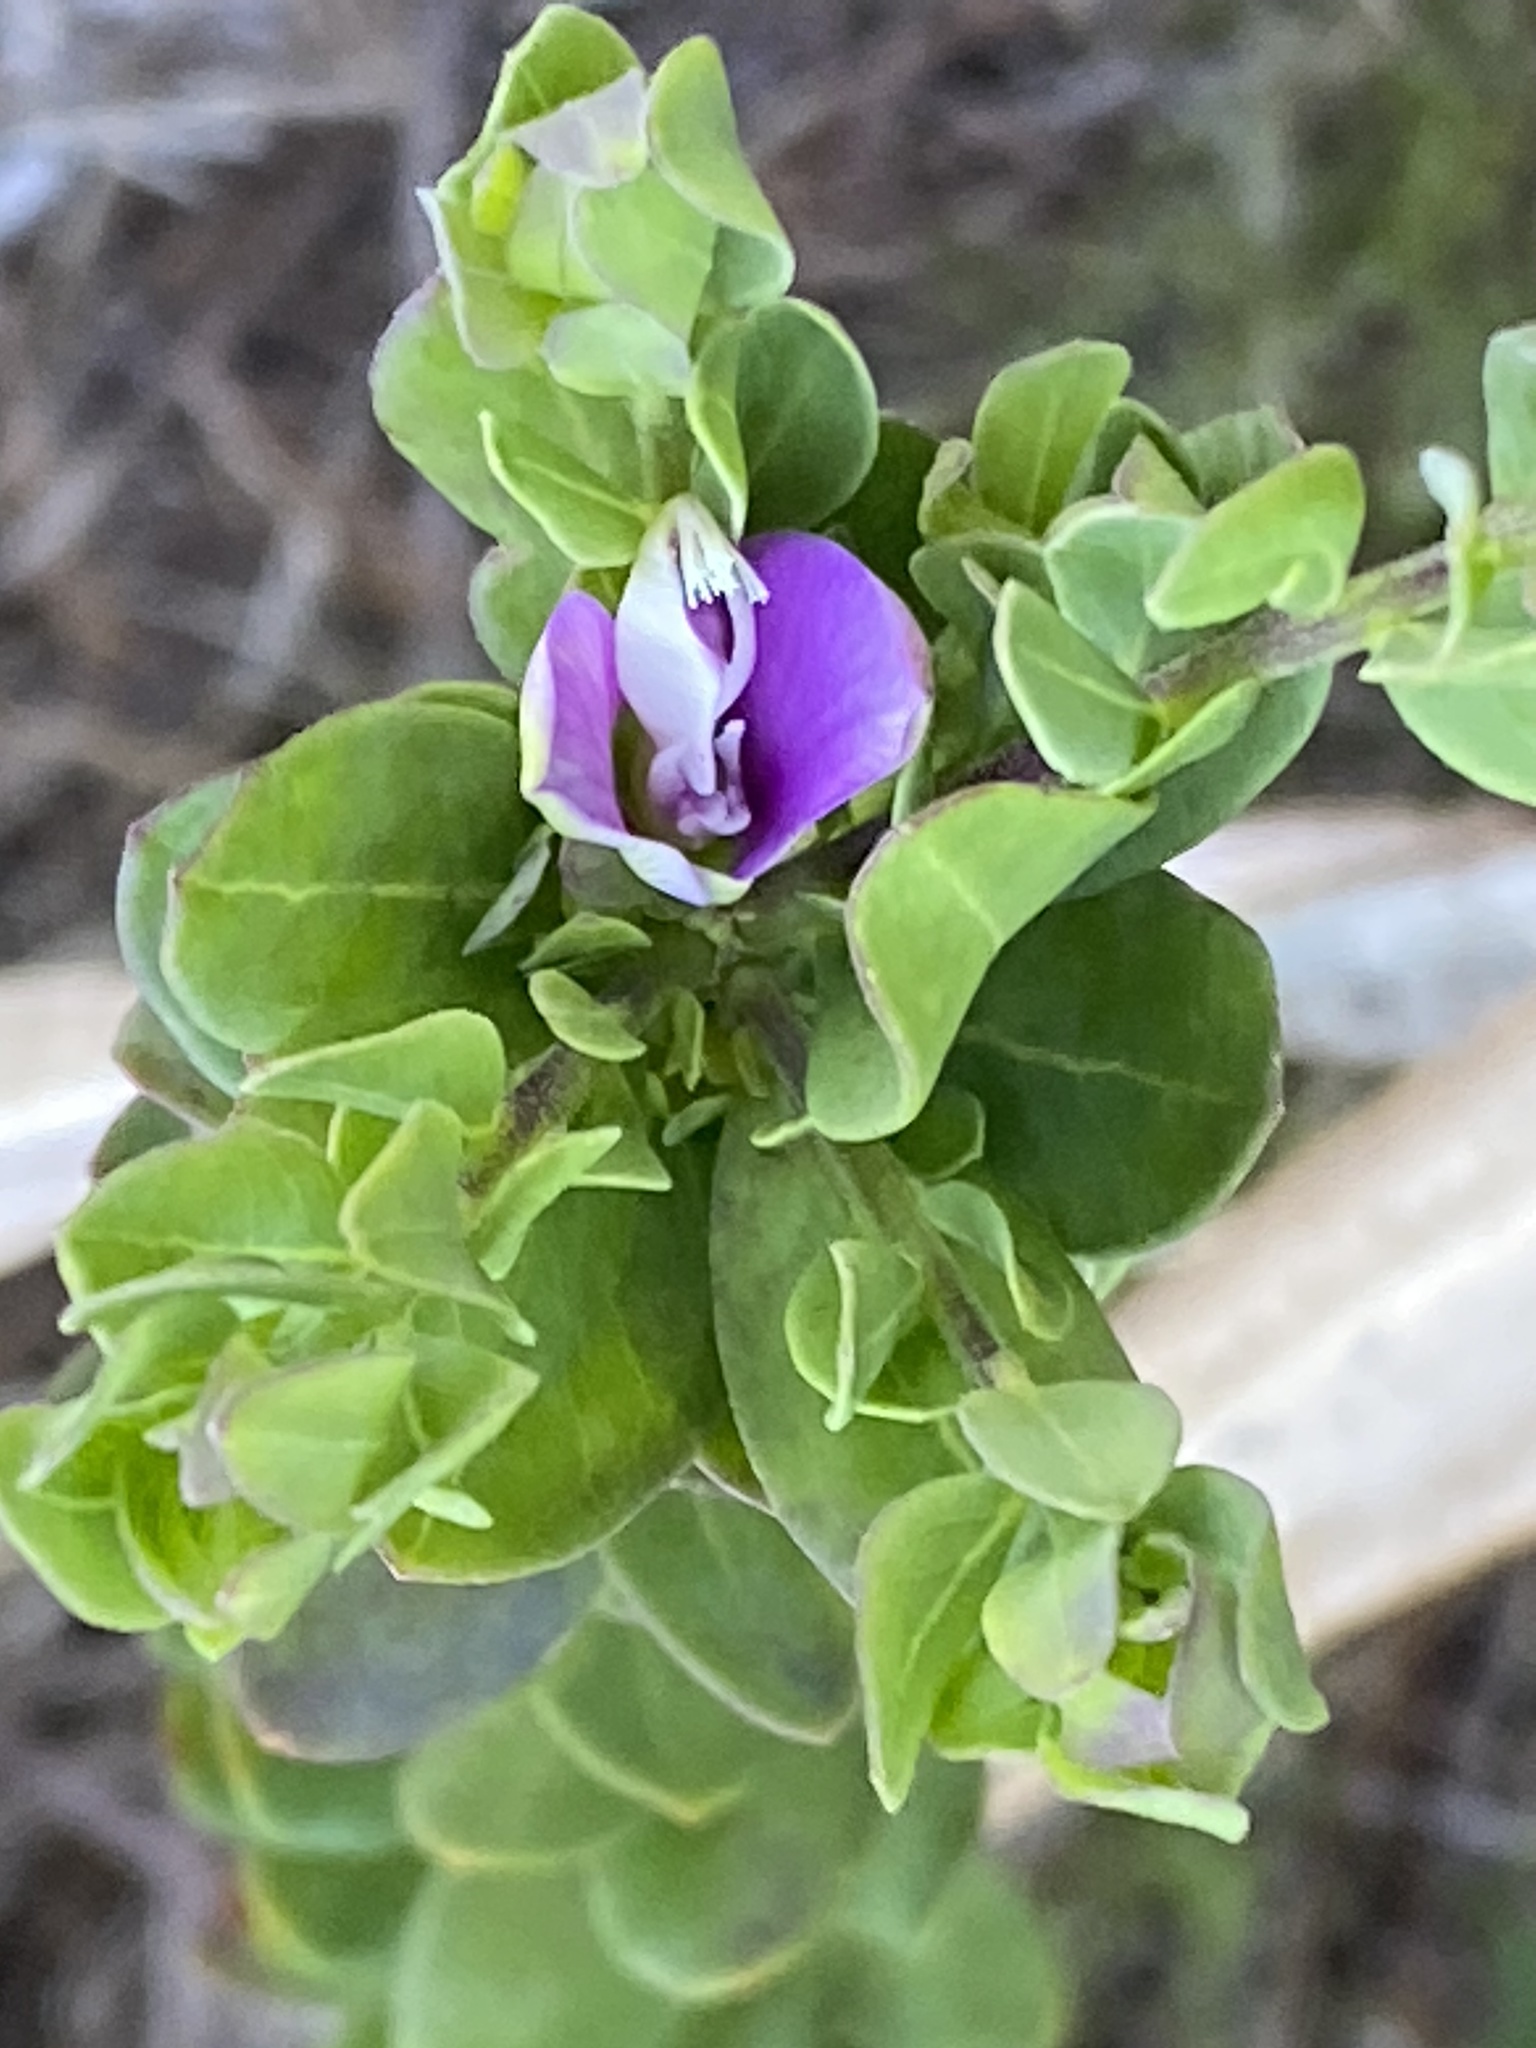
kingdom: Plantae
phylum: Tracheophyta
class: Magnoliopsida
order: Fabales
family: Polygalaceae
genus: Polygala
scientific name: Polygala myrtifolia
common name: Myrtle-leaf milkwort
